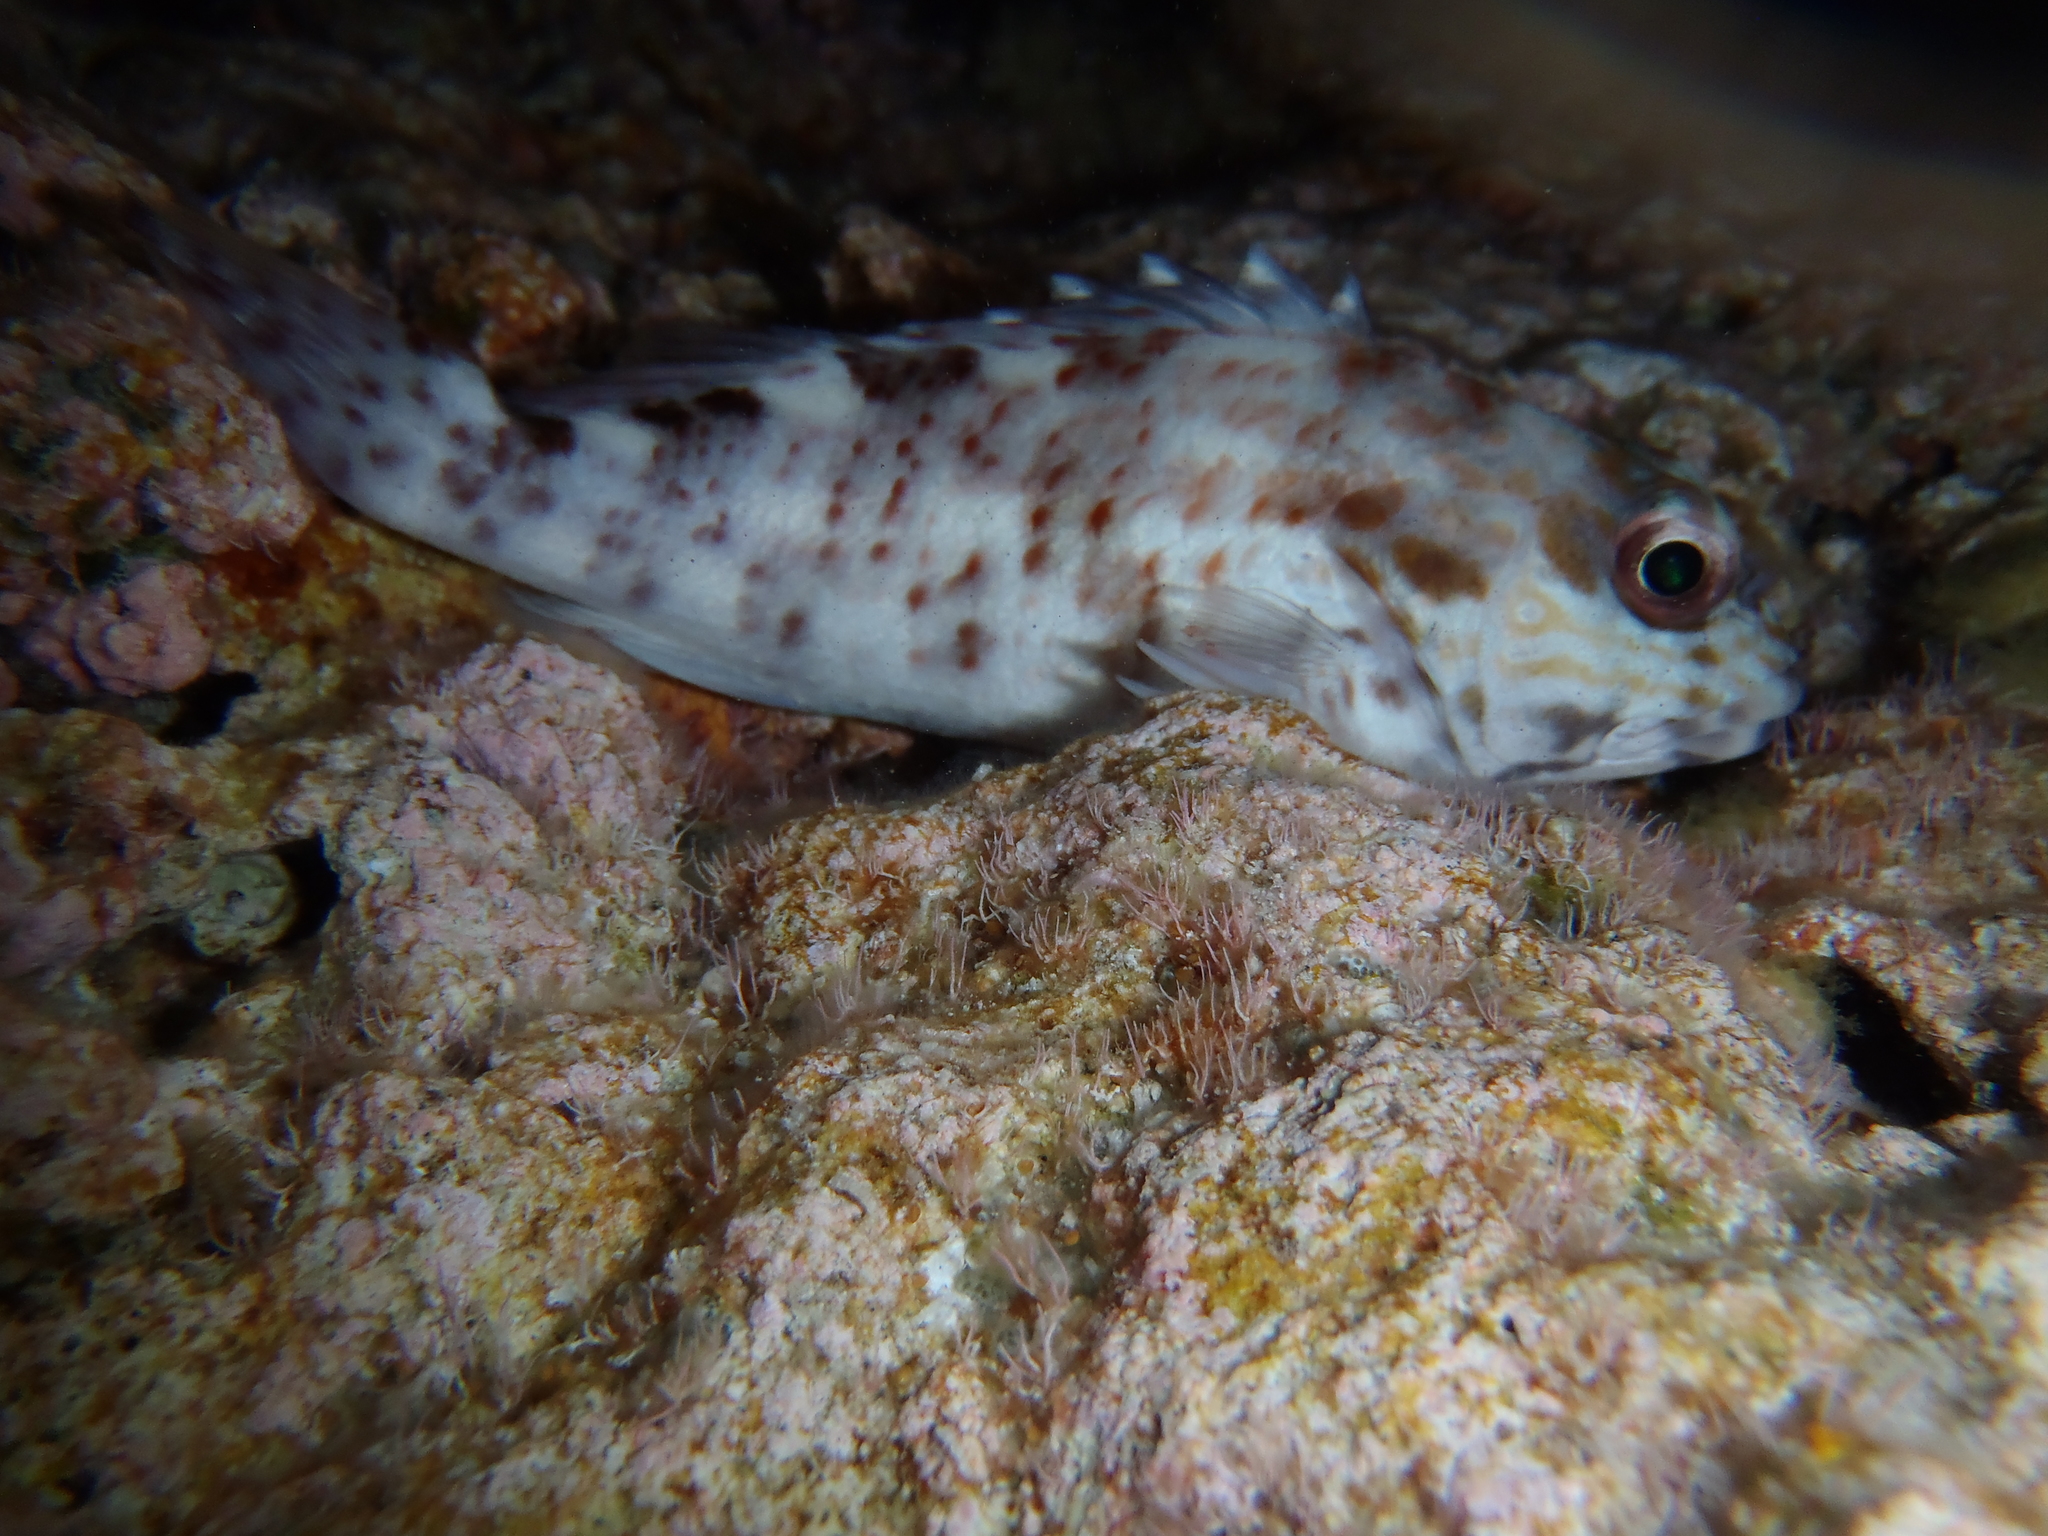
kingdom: Animalia
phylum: Chordata
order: Perciformes
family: Cirrhitidae
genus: Cirrhitus
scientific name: Cirrhitus pinnulatus
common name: Stocky hawkfish
